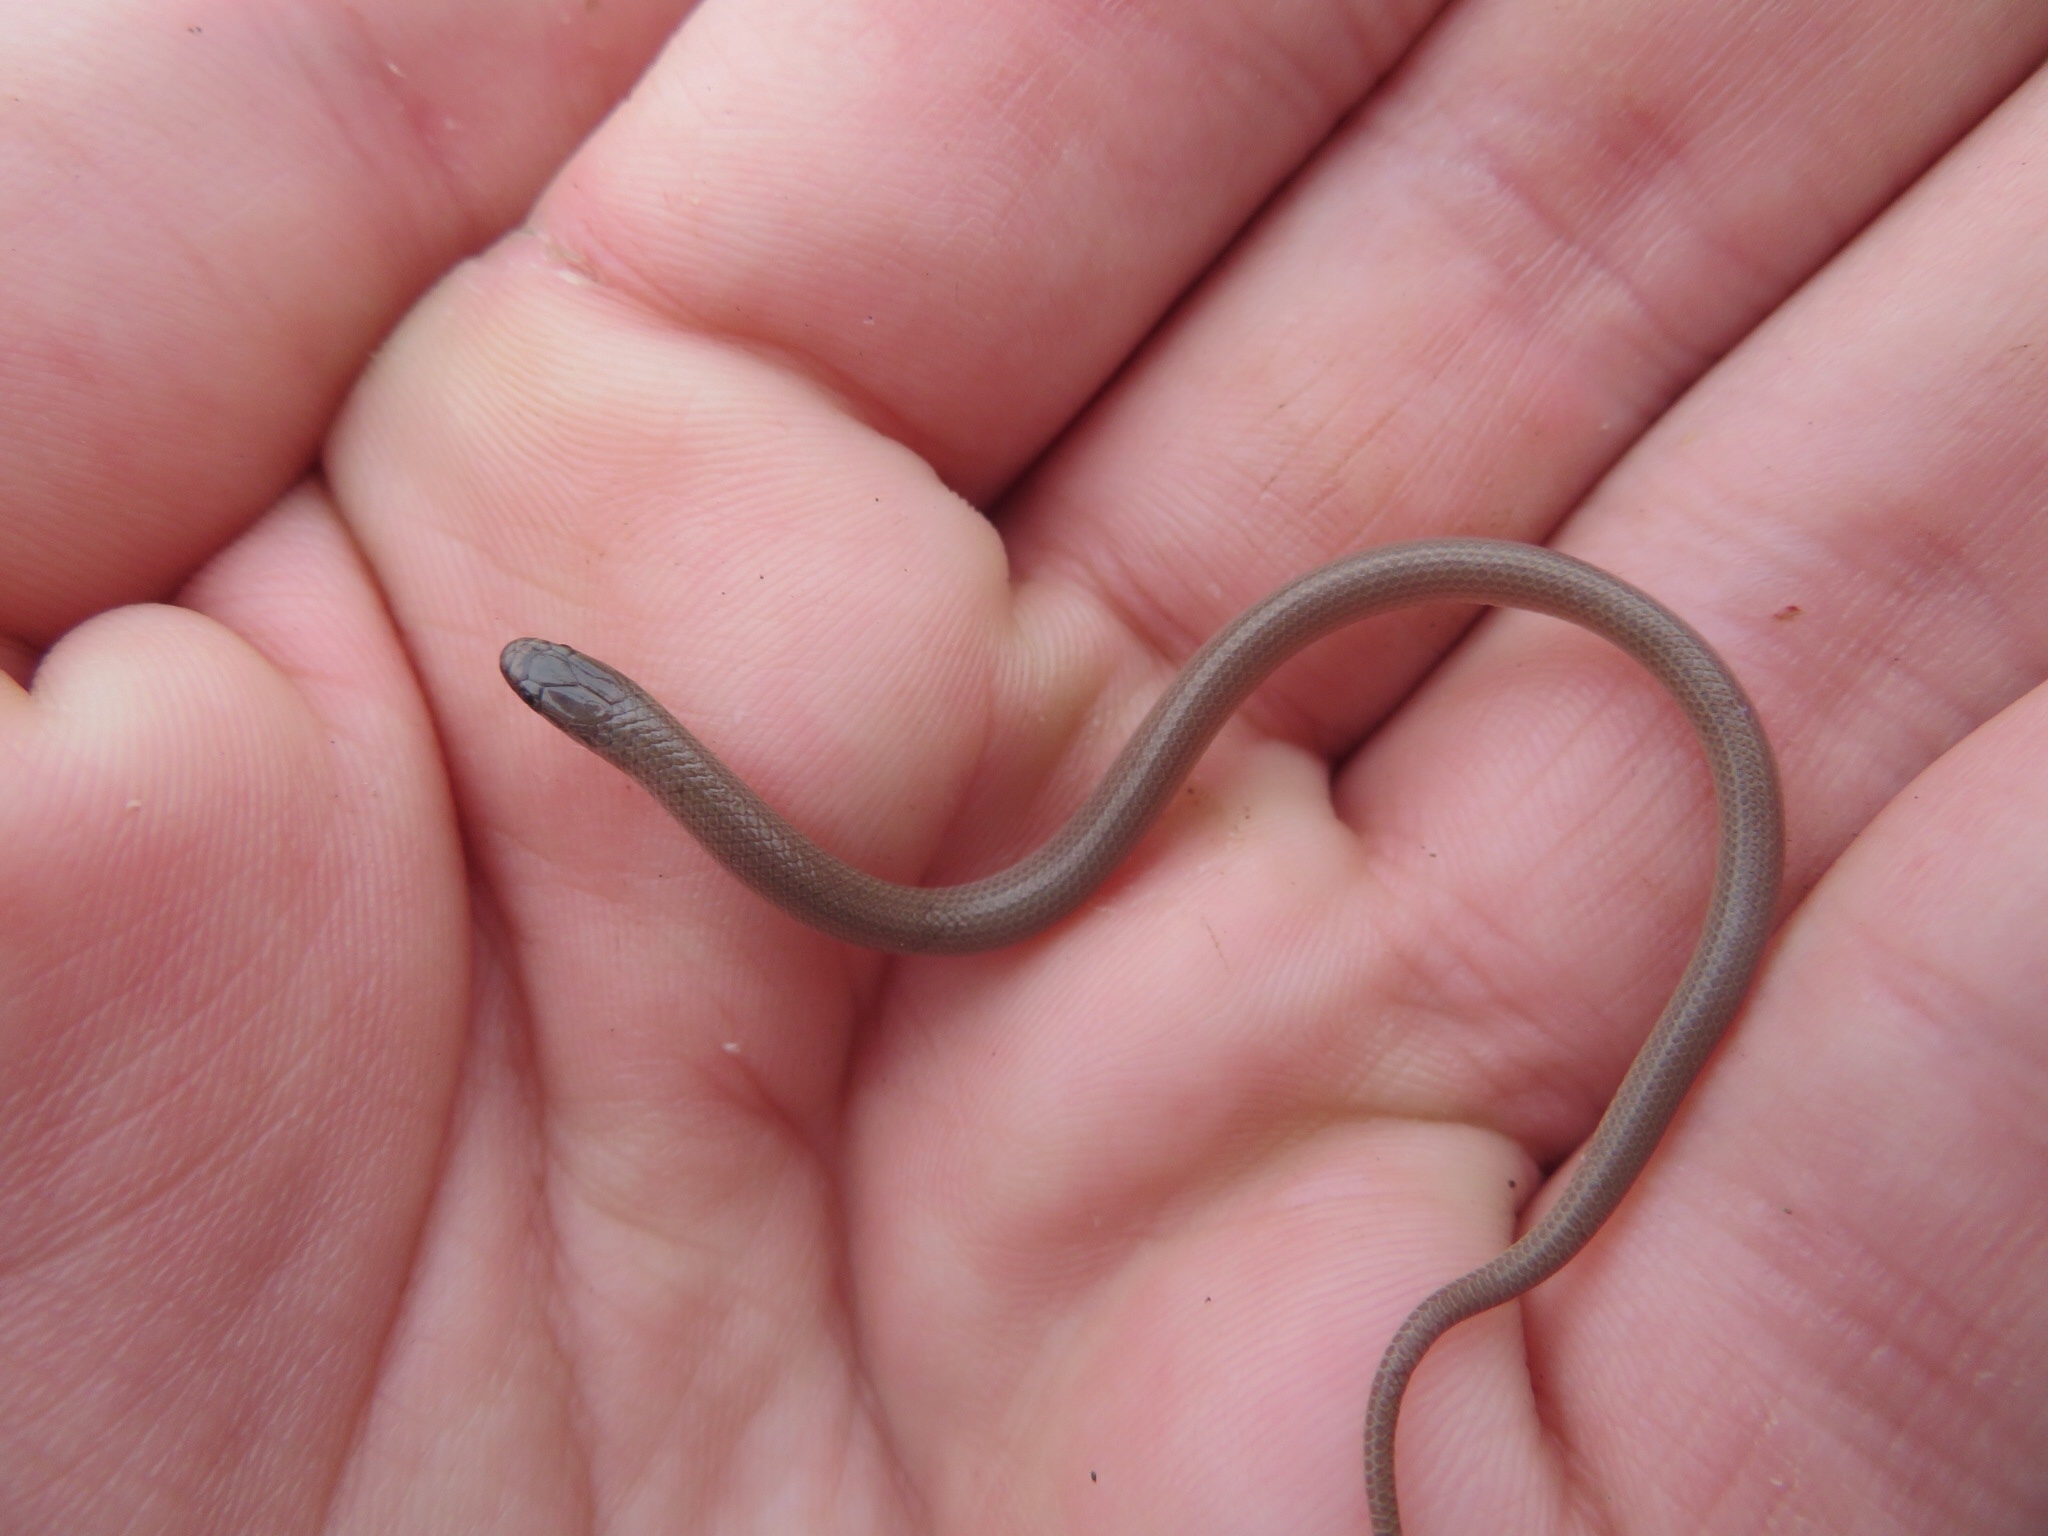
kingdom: Animalia
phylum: Chordata
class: Squamata
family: Colubridae
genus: Tantilla
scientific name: Tantilla gracilis
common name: Flathead snake
